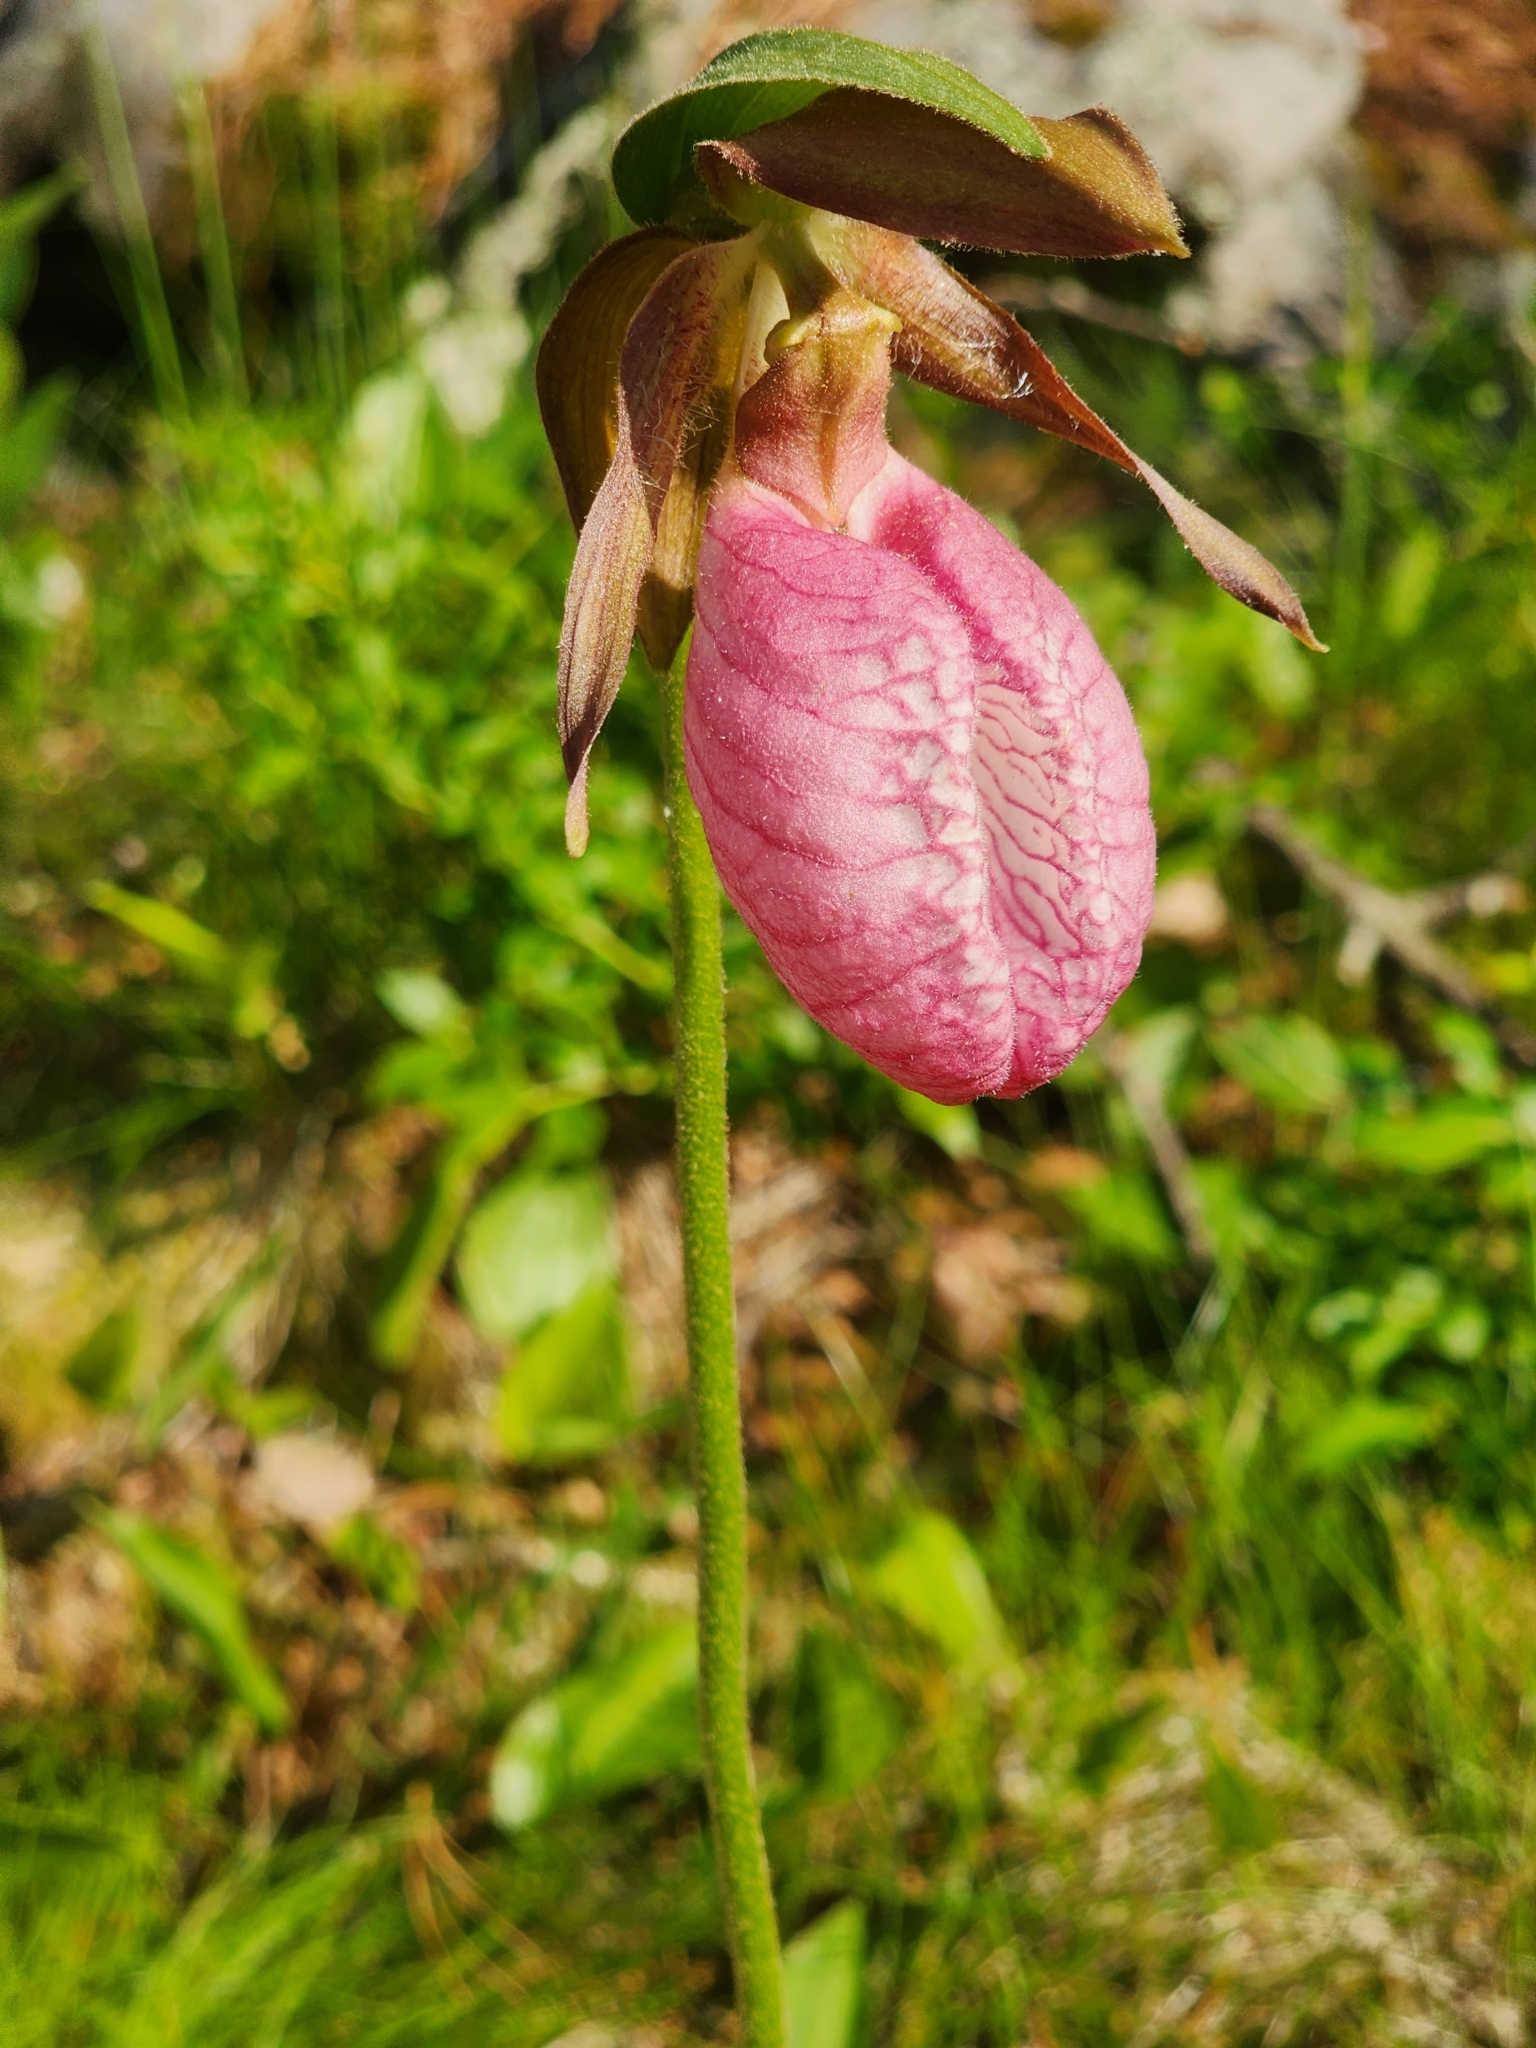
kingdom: Plantae
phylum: Tracheophyta
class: Liliopsida
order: Asparagales
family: Orchidaceae
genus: Cypripedium
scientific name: Cypripedium acaule
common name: Pink lady's-slipper
